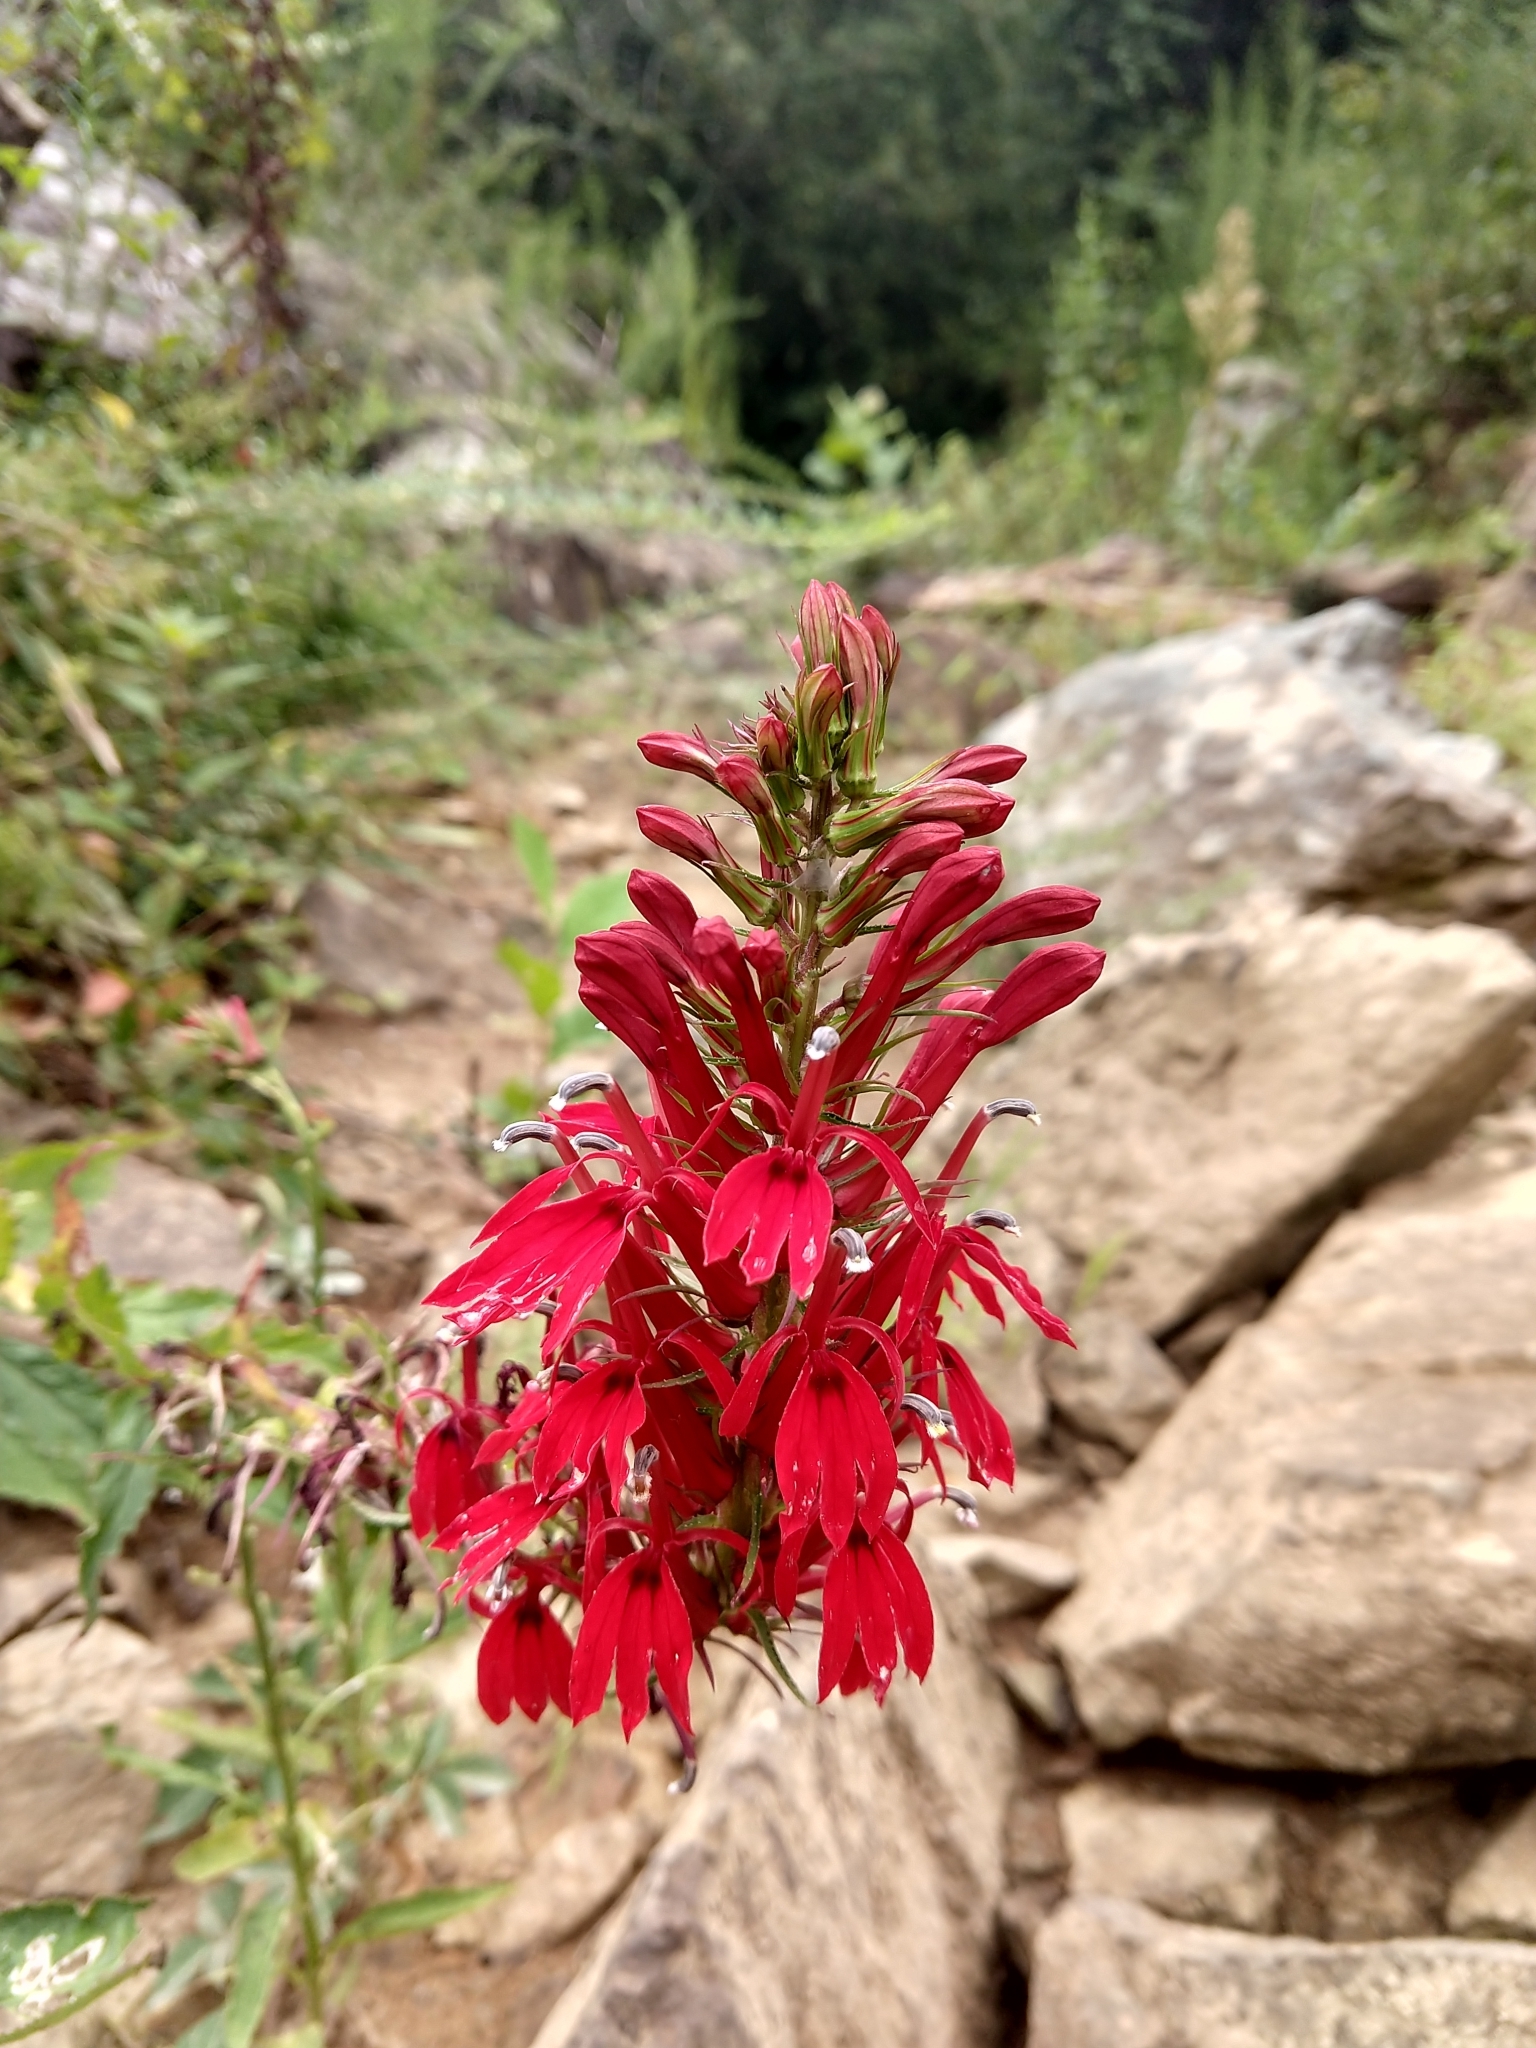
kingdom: Plantae
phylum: Tracheophyta
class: Magnoliopsida
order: Asterales
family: Campanulaceae
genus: Lobelia
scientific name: Lobelia cardinalis
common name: Cardinal flower
